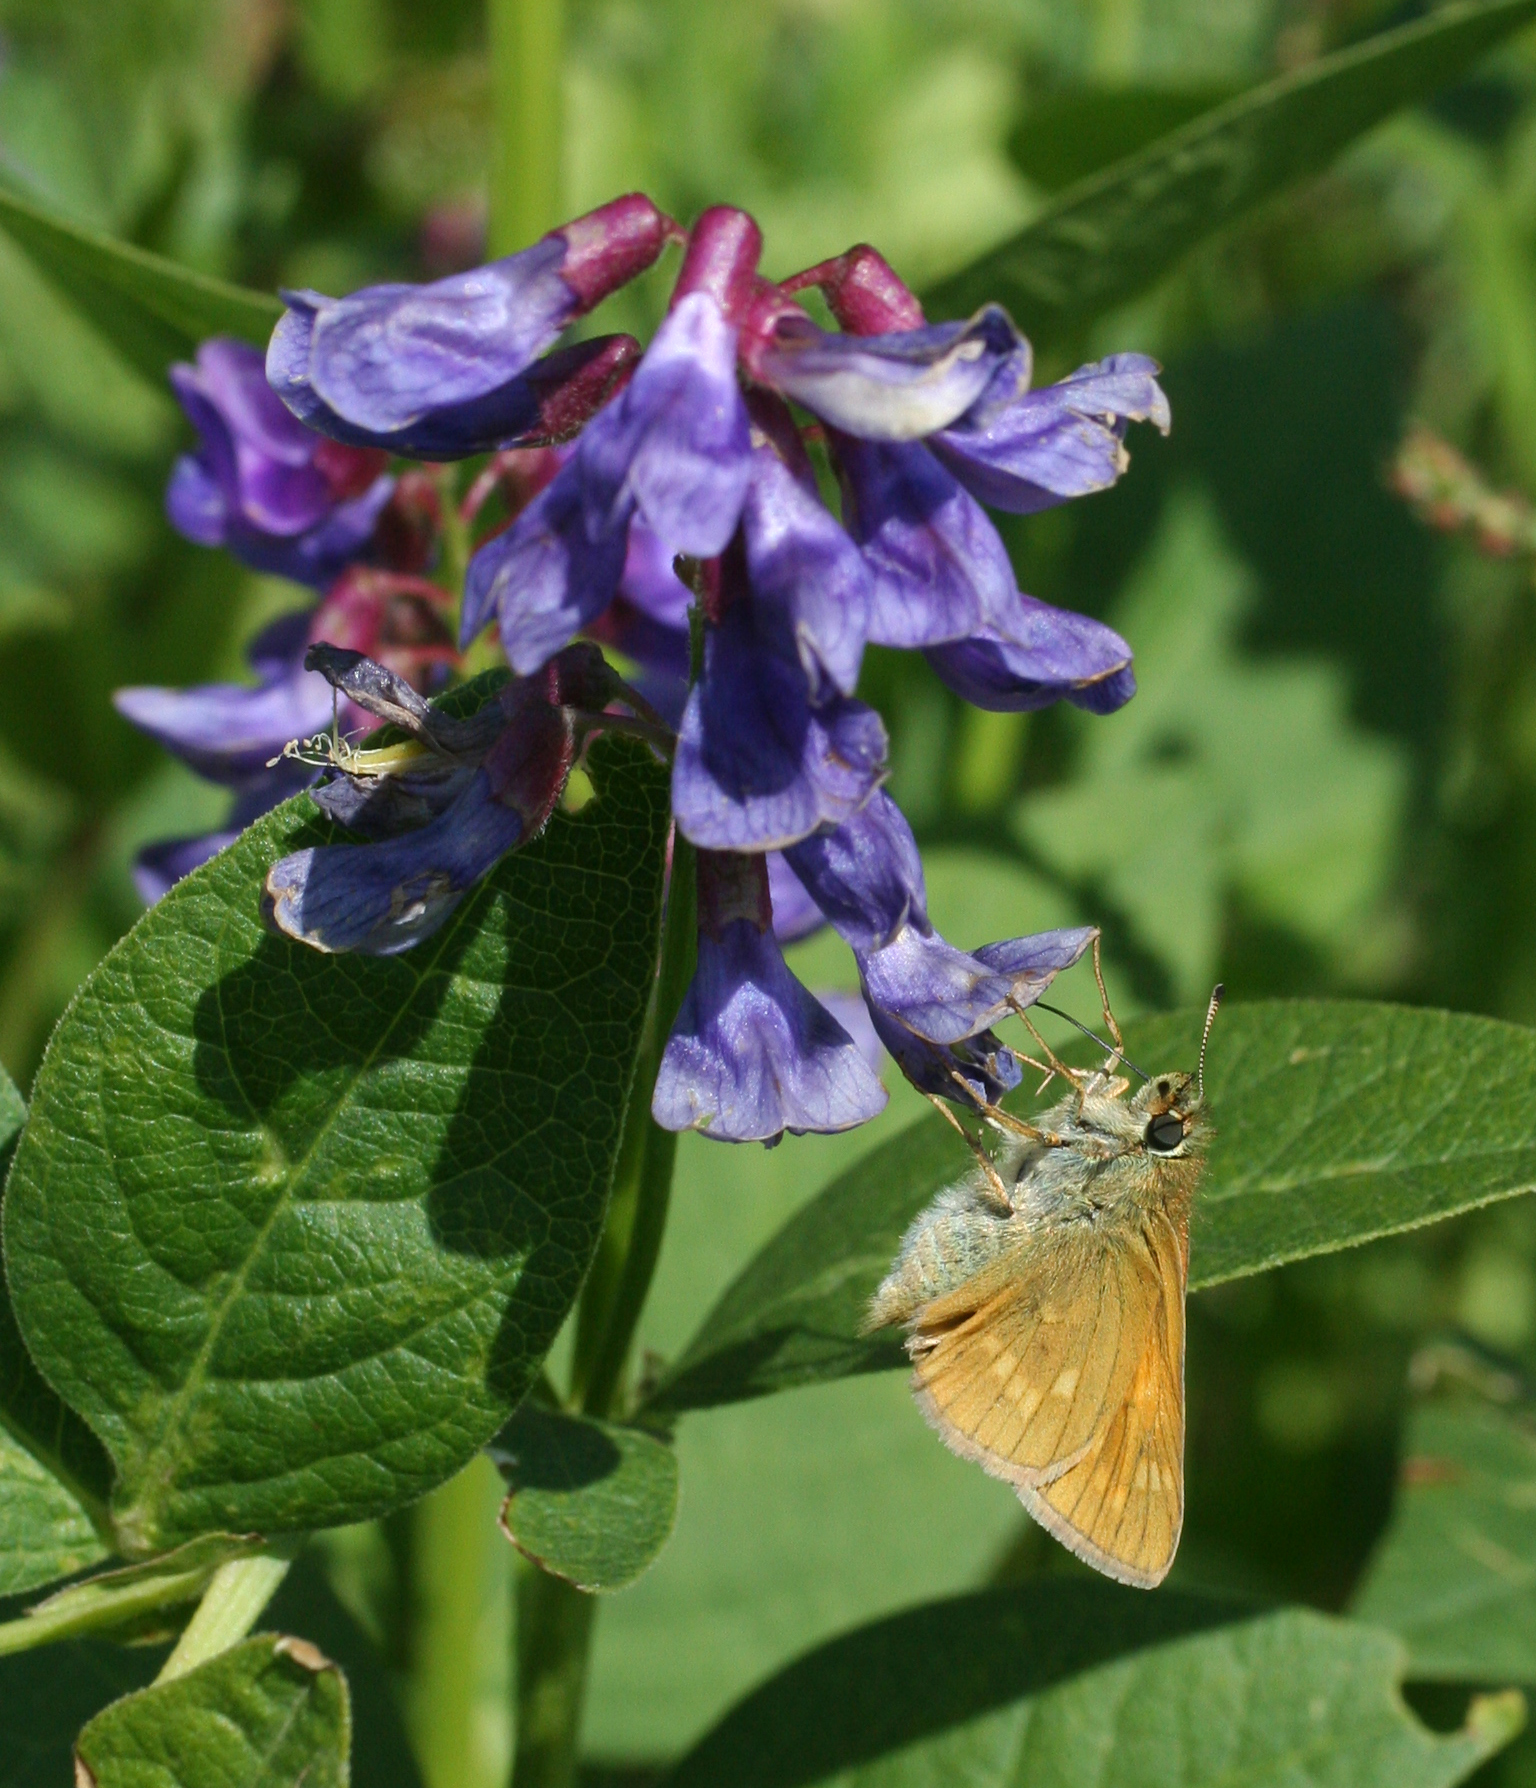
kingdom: Animalia
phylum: Arthropoda
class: Insecta
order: Lepidoptera
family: Hesperiidae
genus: Ochlodes
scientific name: Ochlodes venata
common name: Large skipper
